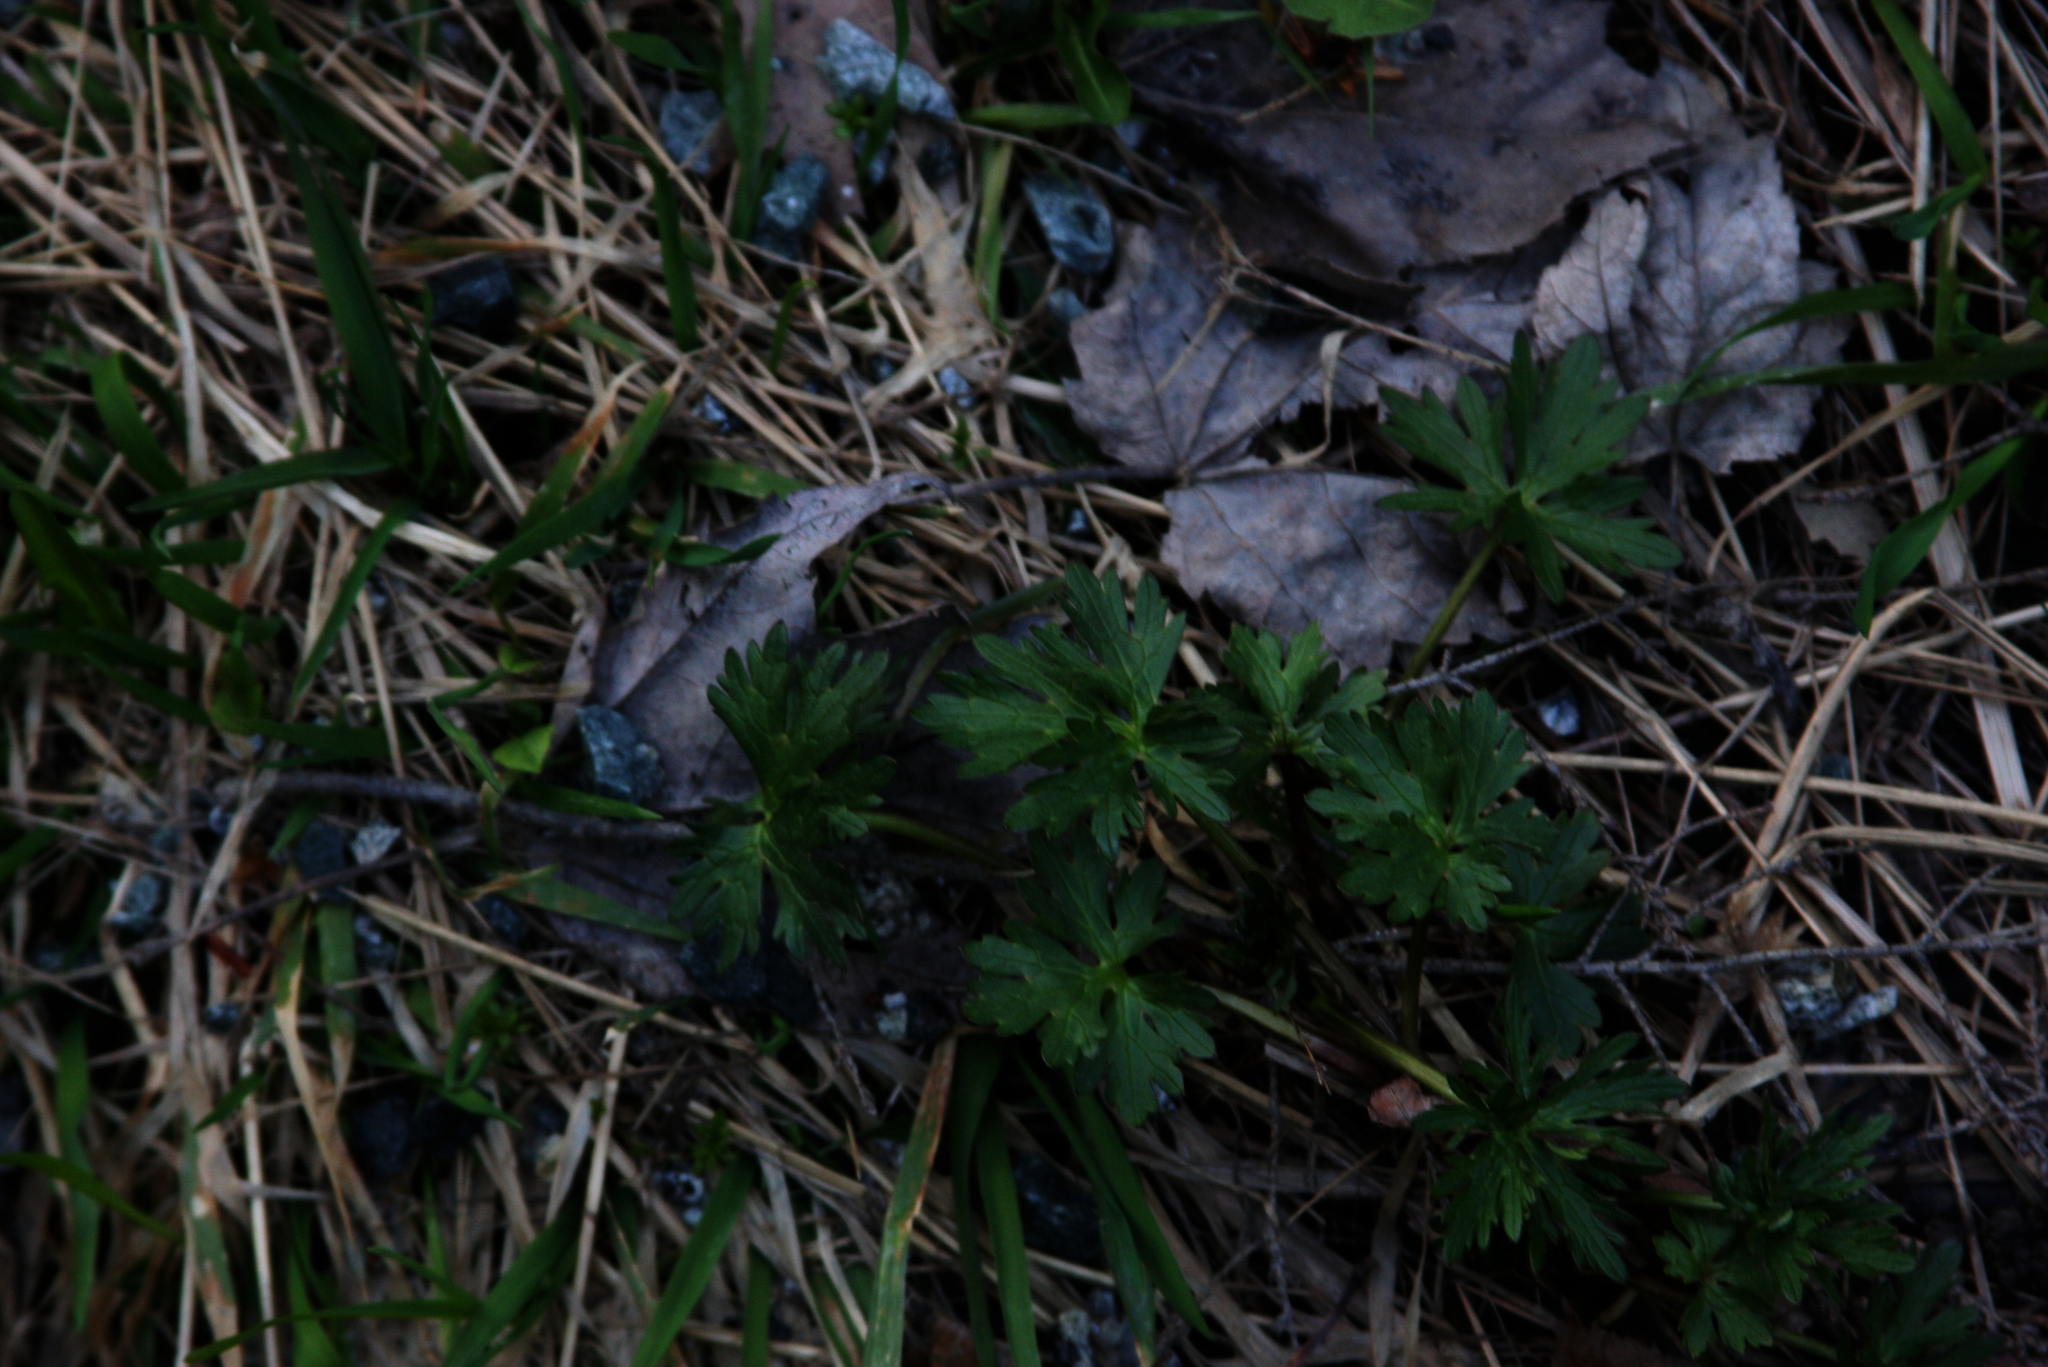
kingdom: Plantae
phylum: Tracheophyta
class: Magnoliopsida
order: Ranunculales
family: Ranunculaceae
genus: Ranunculus
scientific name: Ranunculus repens
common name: Creeping buttercup
